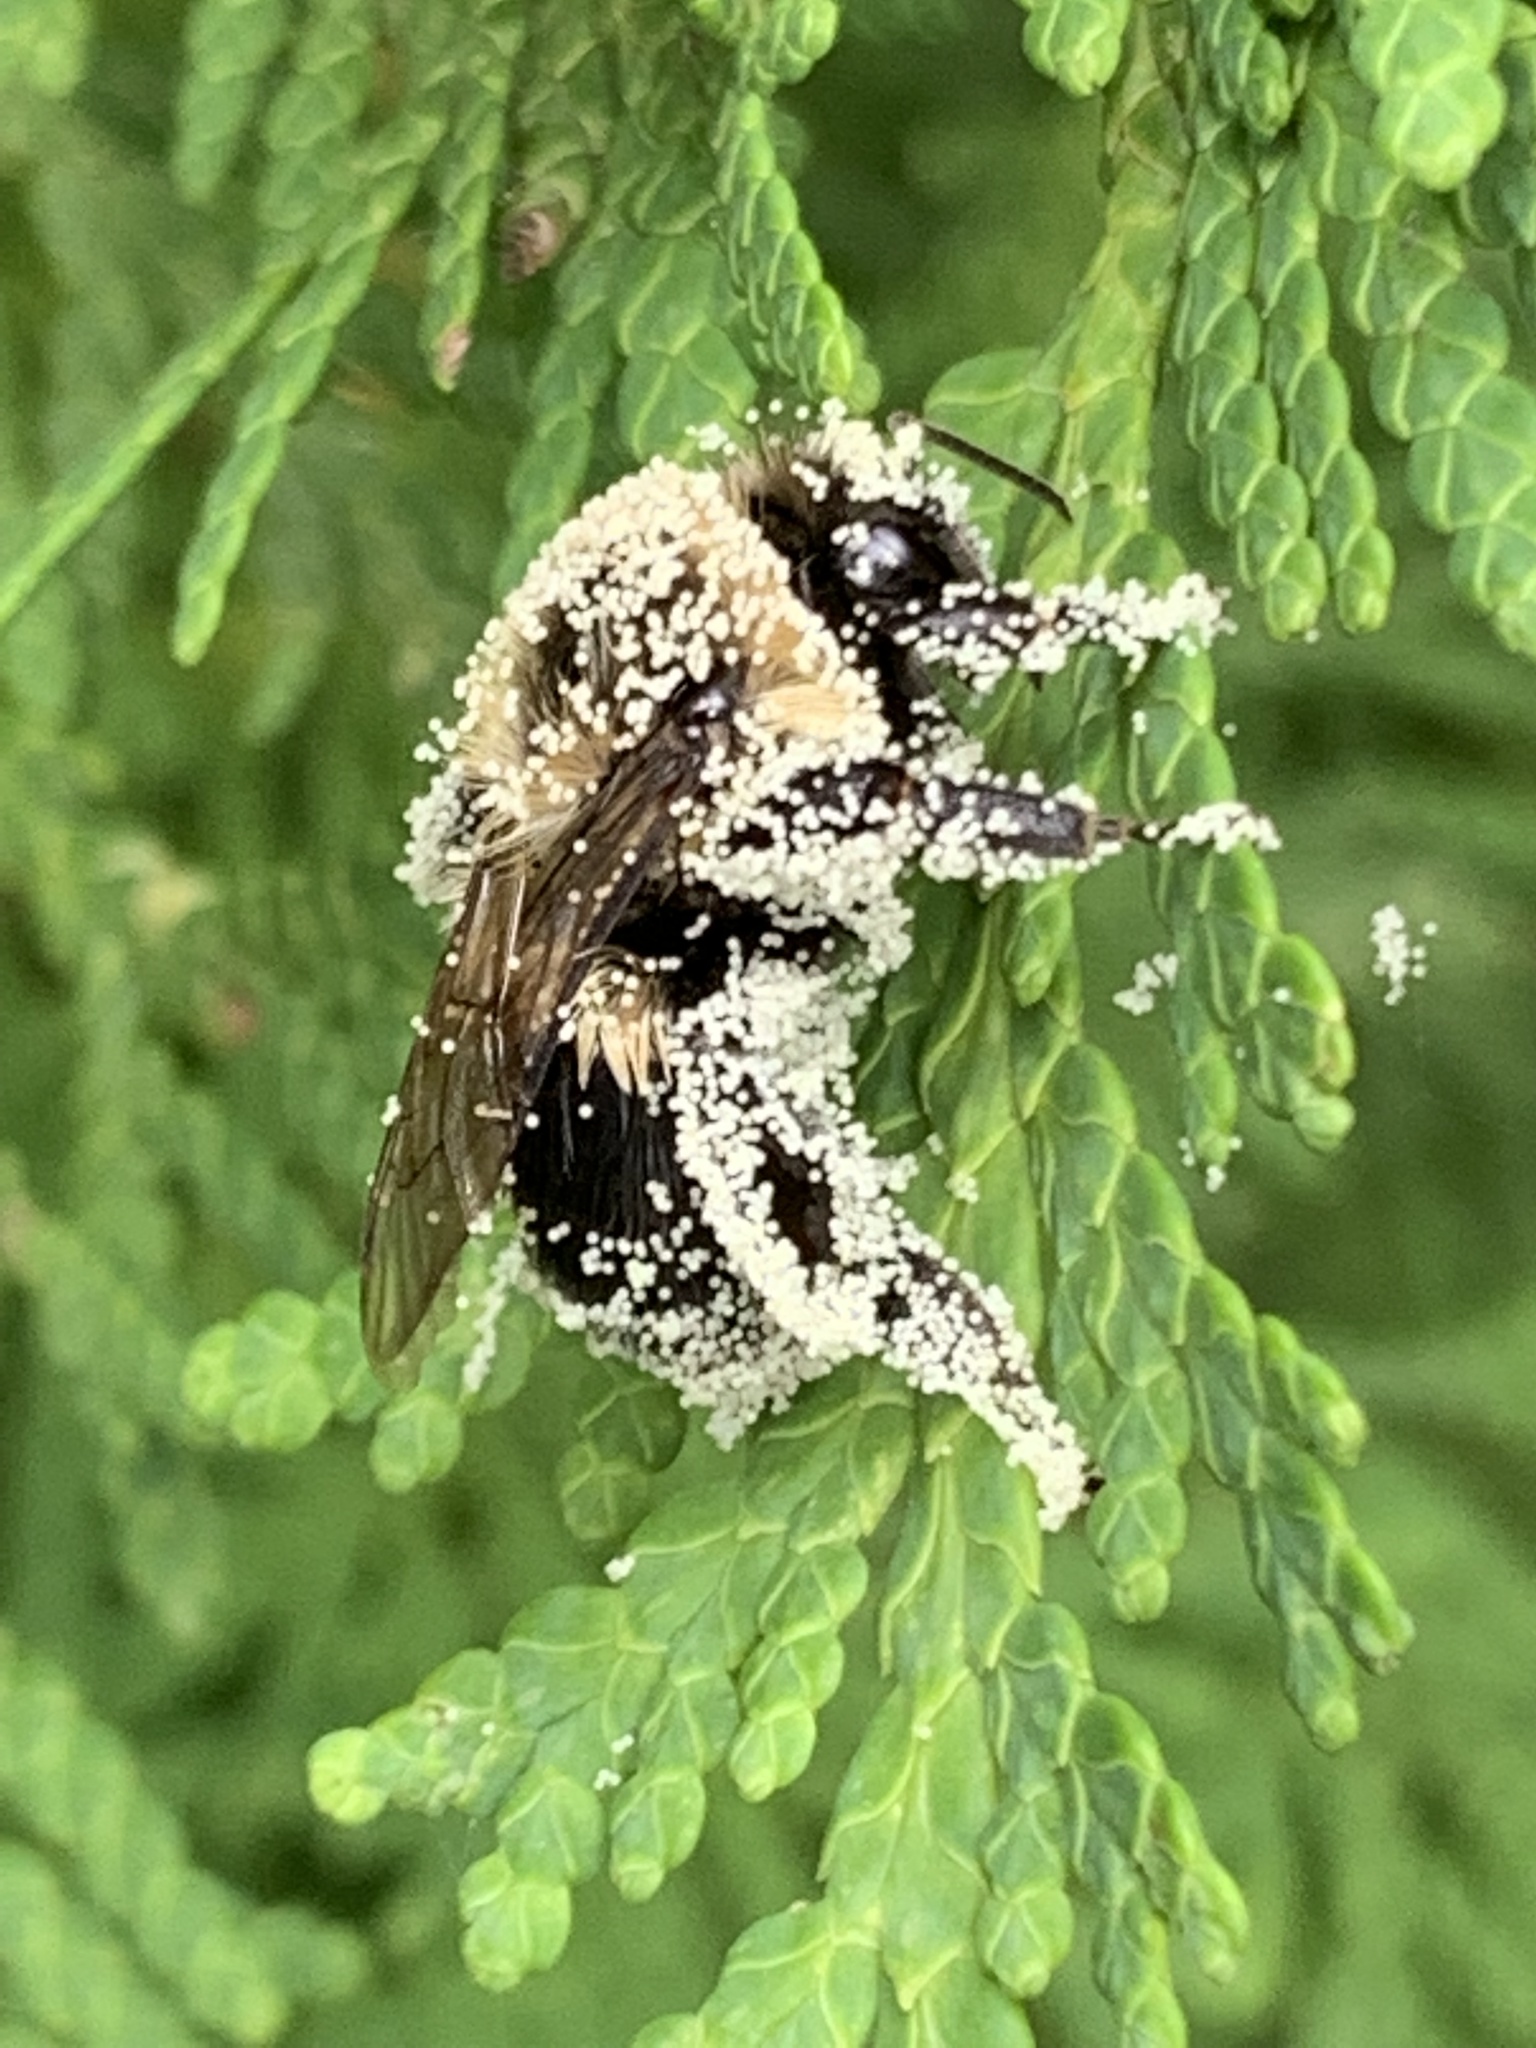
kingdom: Animalia
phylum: Arthropoda
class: Insecta
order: Hymenoptera
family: Apidae
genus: Bombus
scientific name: Bombus impatiens
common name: Common eastern bumble bee
